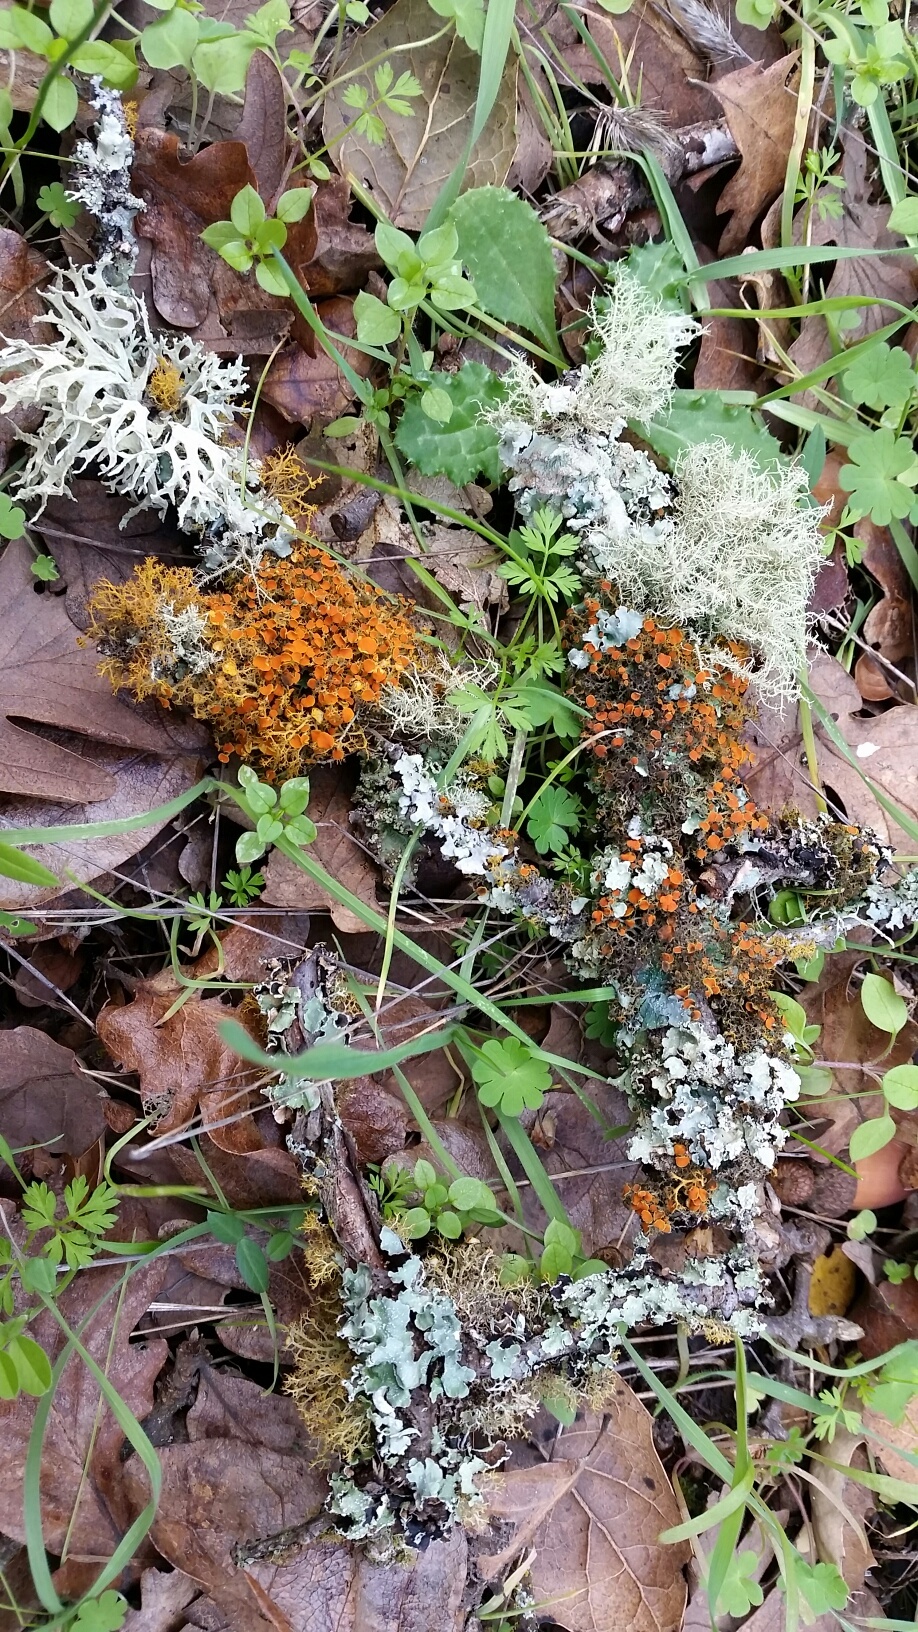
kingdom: Fungi
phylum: Ascomycota
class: Lecanoromycetes
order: Teloschistales
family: Teloschistaceae
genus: Teloschistes
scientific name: Teloschistes flavicans
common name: Golden hair-lichen
